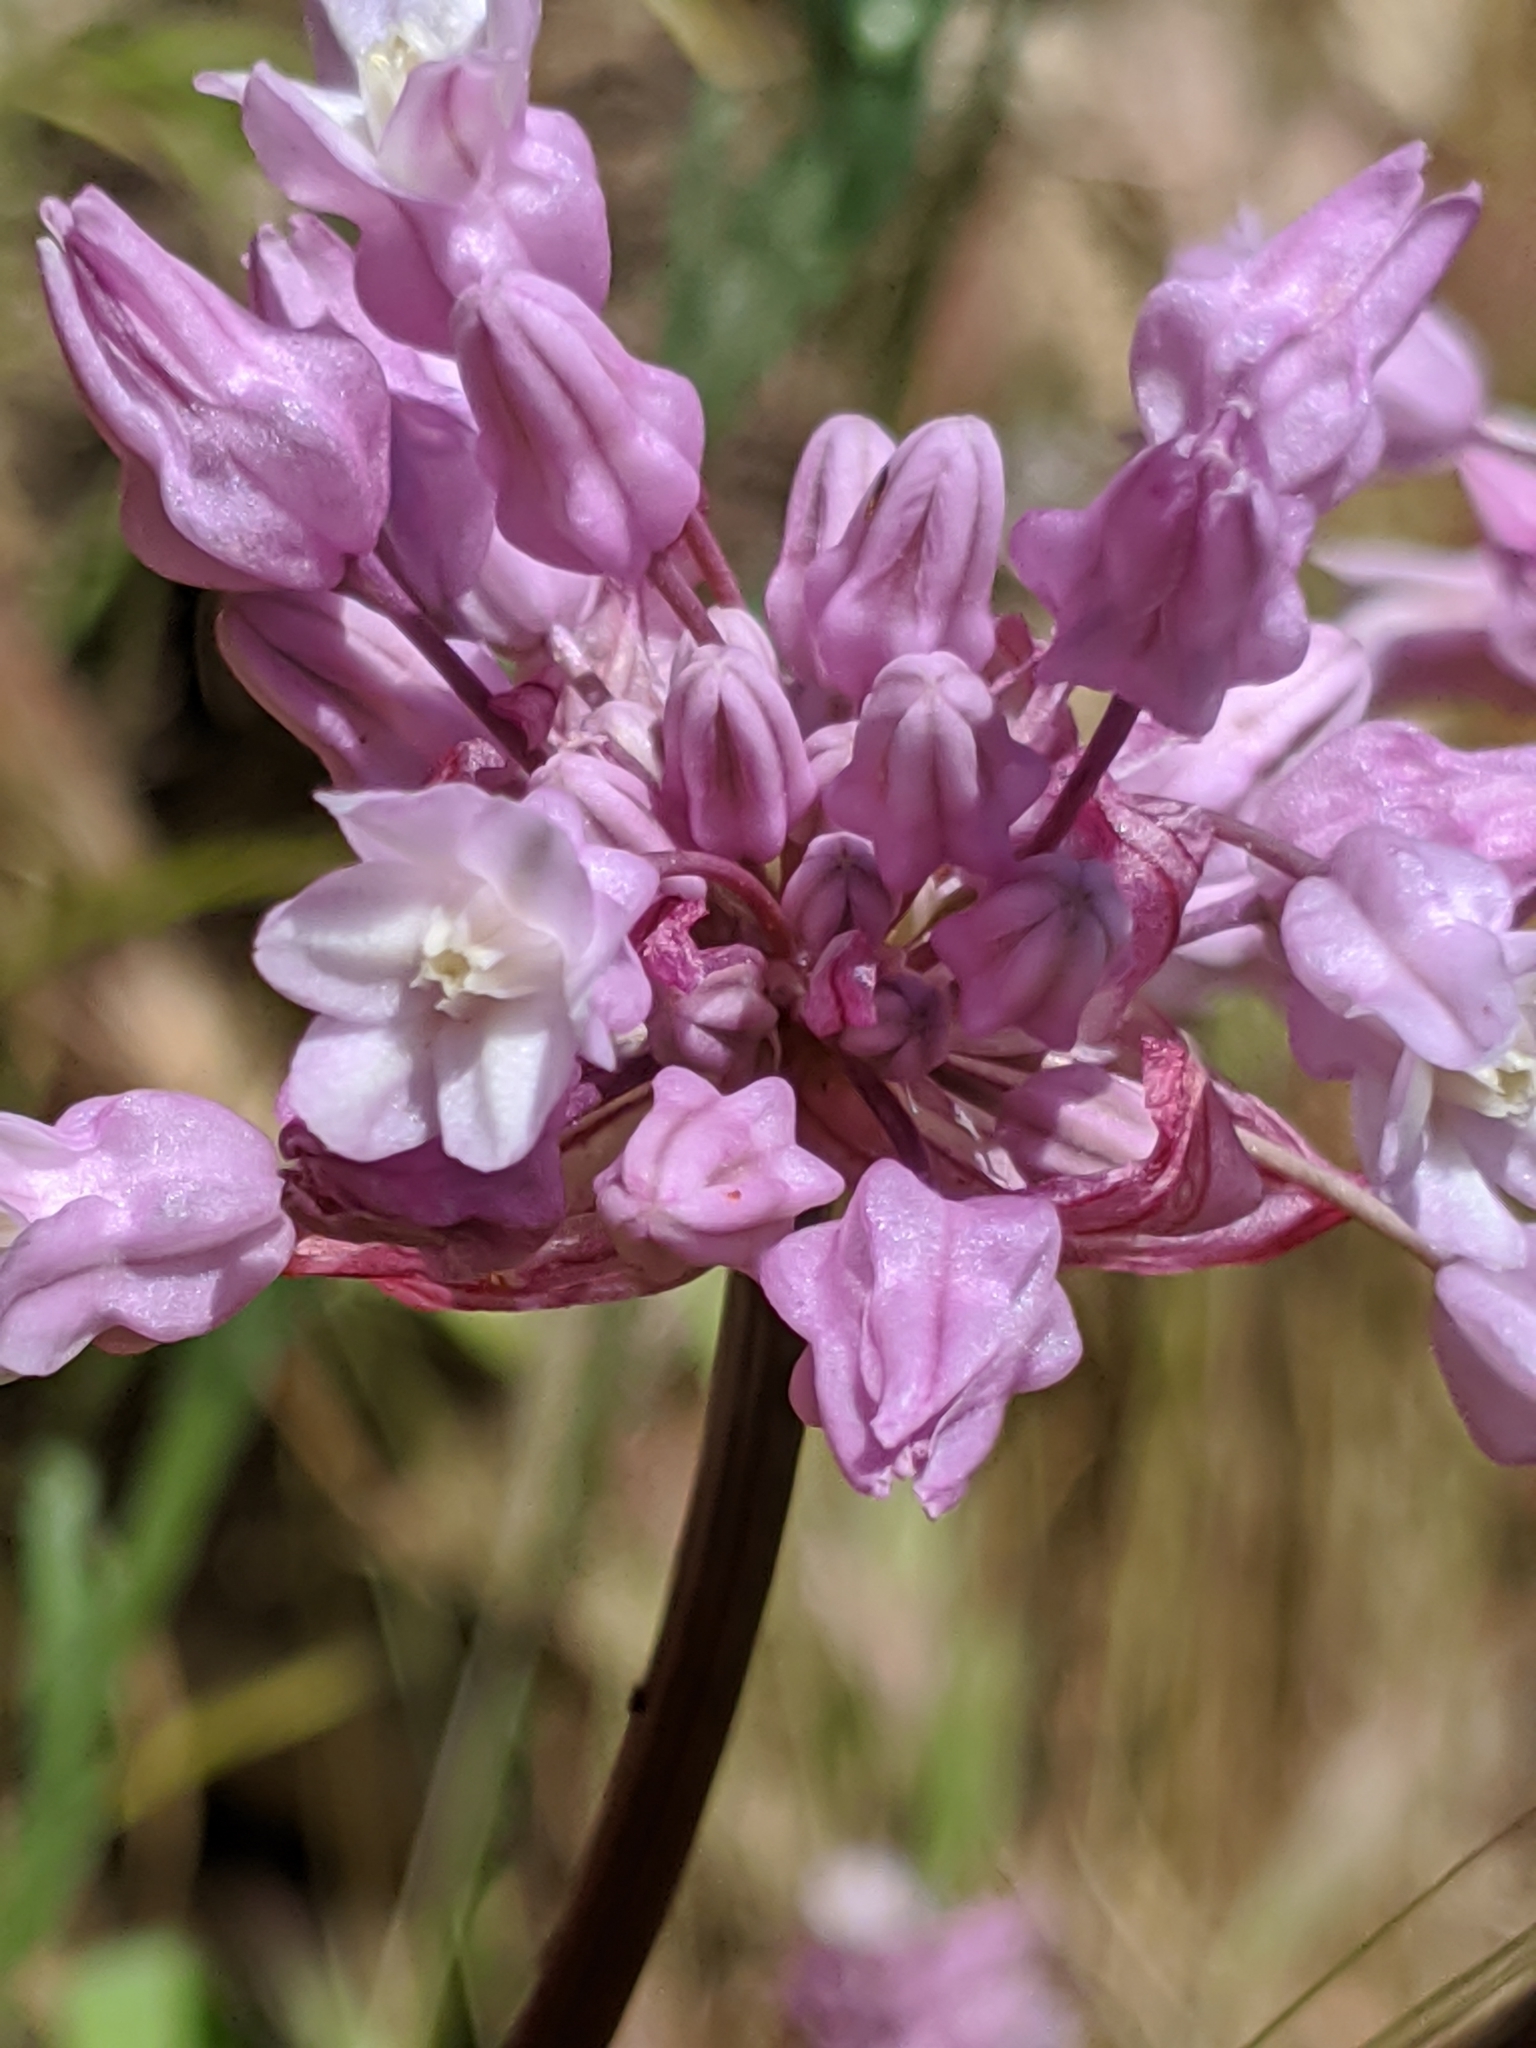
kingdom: Plantae
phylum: Tracheophyta
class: Liliopsida
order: Asparagales
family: Asparagaceae
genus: Dichelostemma
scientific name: Dichelostemma volubile
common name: Trining brodiaea
